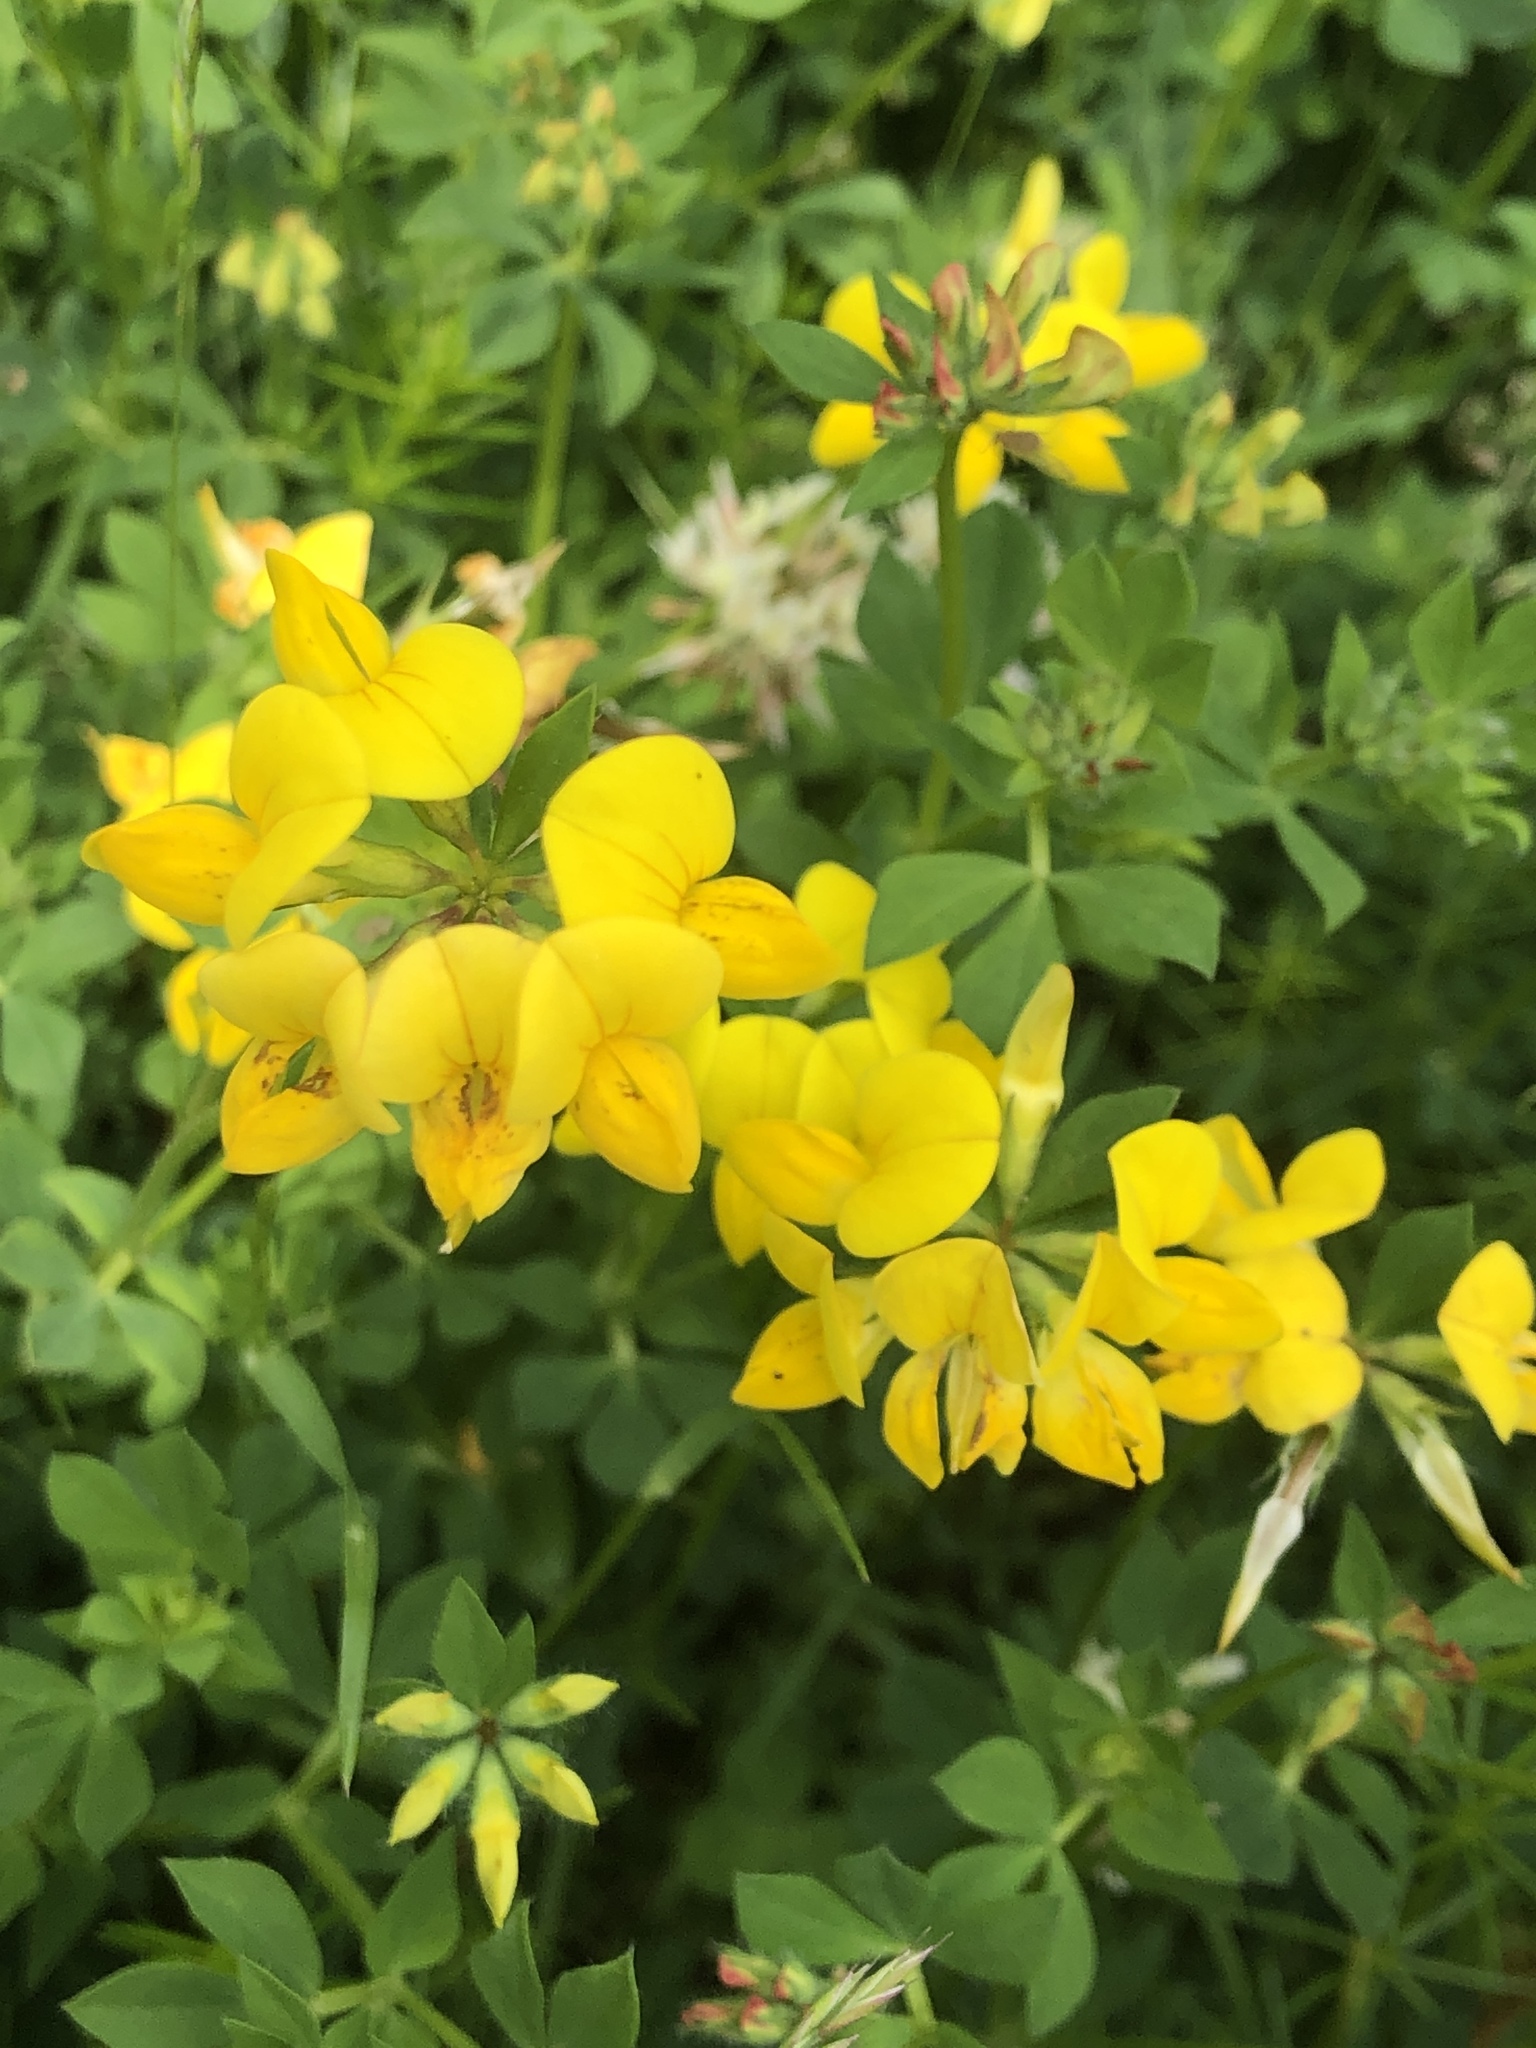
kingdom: Plantae
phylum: Tracheophyta
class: Magnoliopsida
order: Fabales
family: Fabaceae
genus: Lotus
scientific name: Lotus corniculatus
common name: Common bird's-foot-trefoil
